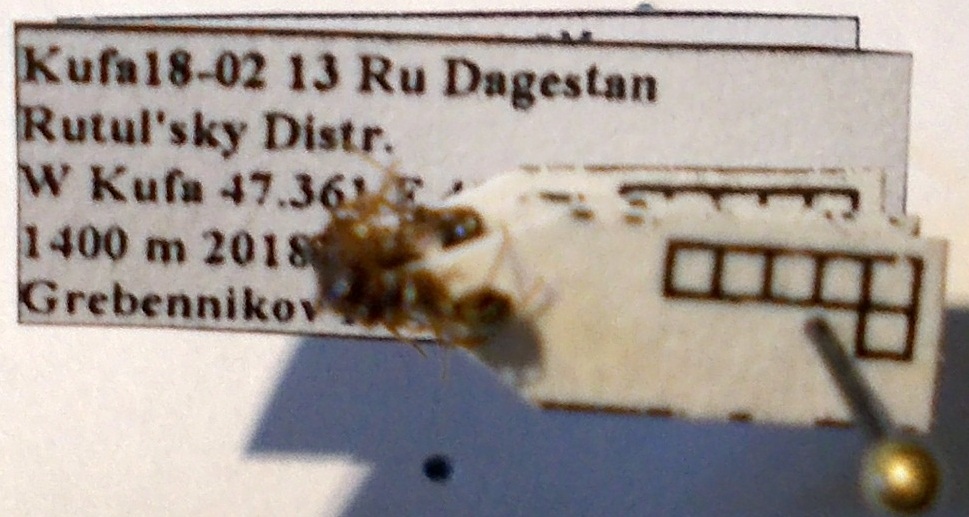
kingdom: Animalia
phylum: Arthropoda
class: Insecta
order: Hymenoptera
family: Formicidae
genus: Aphaenogaster
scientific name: Aphaenogaster subterranea
